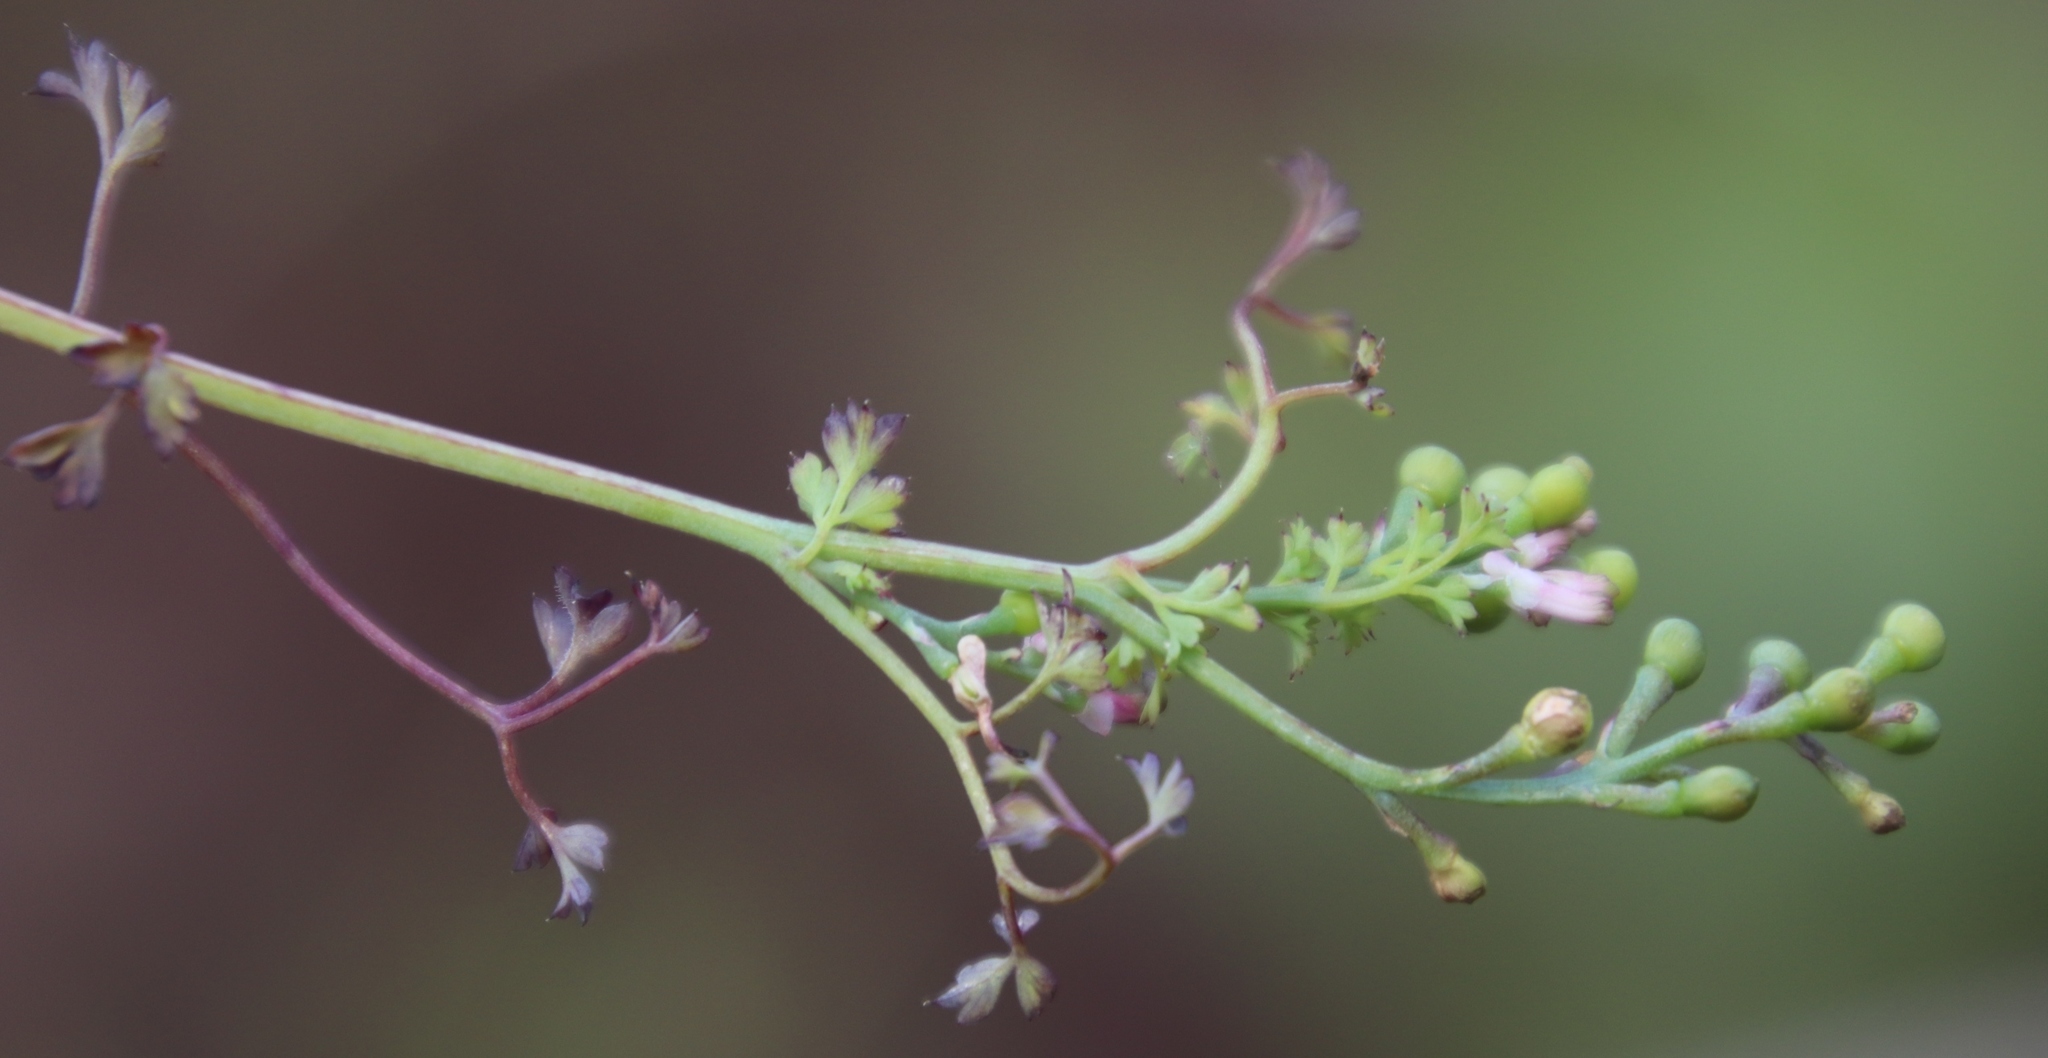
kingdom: Plantae
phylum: Tracheophyta
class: Magnoliopsida
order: Ranunculales
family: Papaveraceae
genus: Fumaria
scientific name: Fumaria muralis
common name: Common ramping-fumitory
